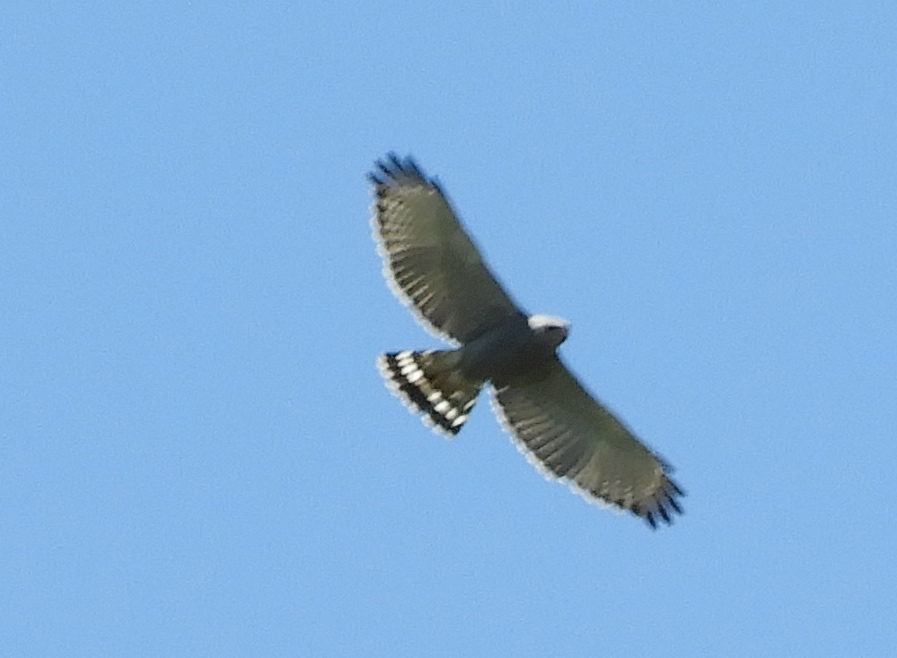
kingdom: Animalia
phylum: Chordata
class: Aves
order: Accipitriformes
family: Accipitridae
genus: Buteo
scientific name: Buteo nitidus
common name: Grey-lined hawk
